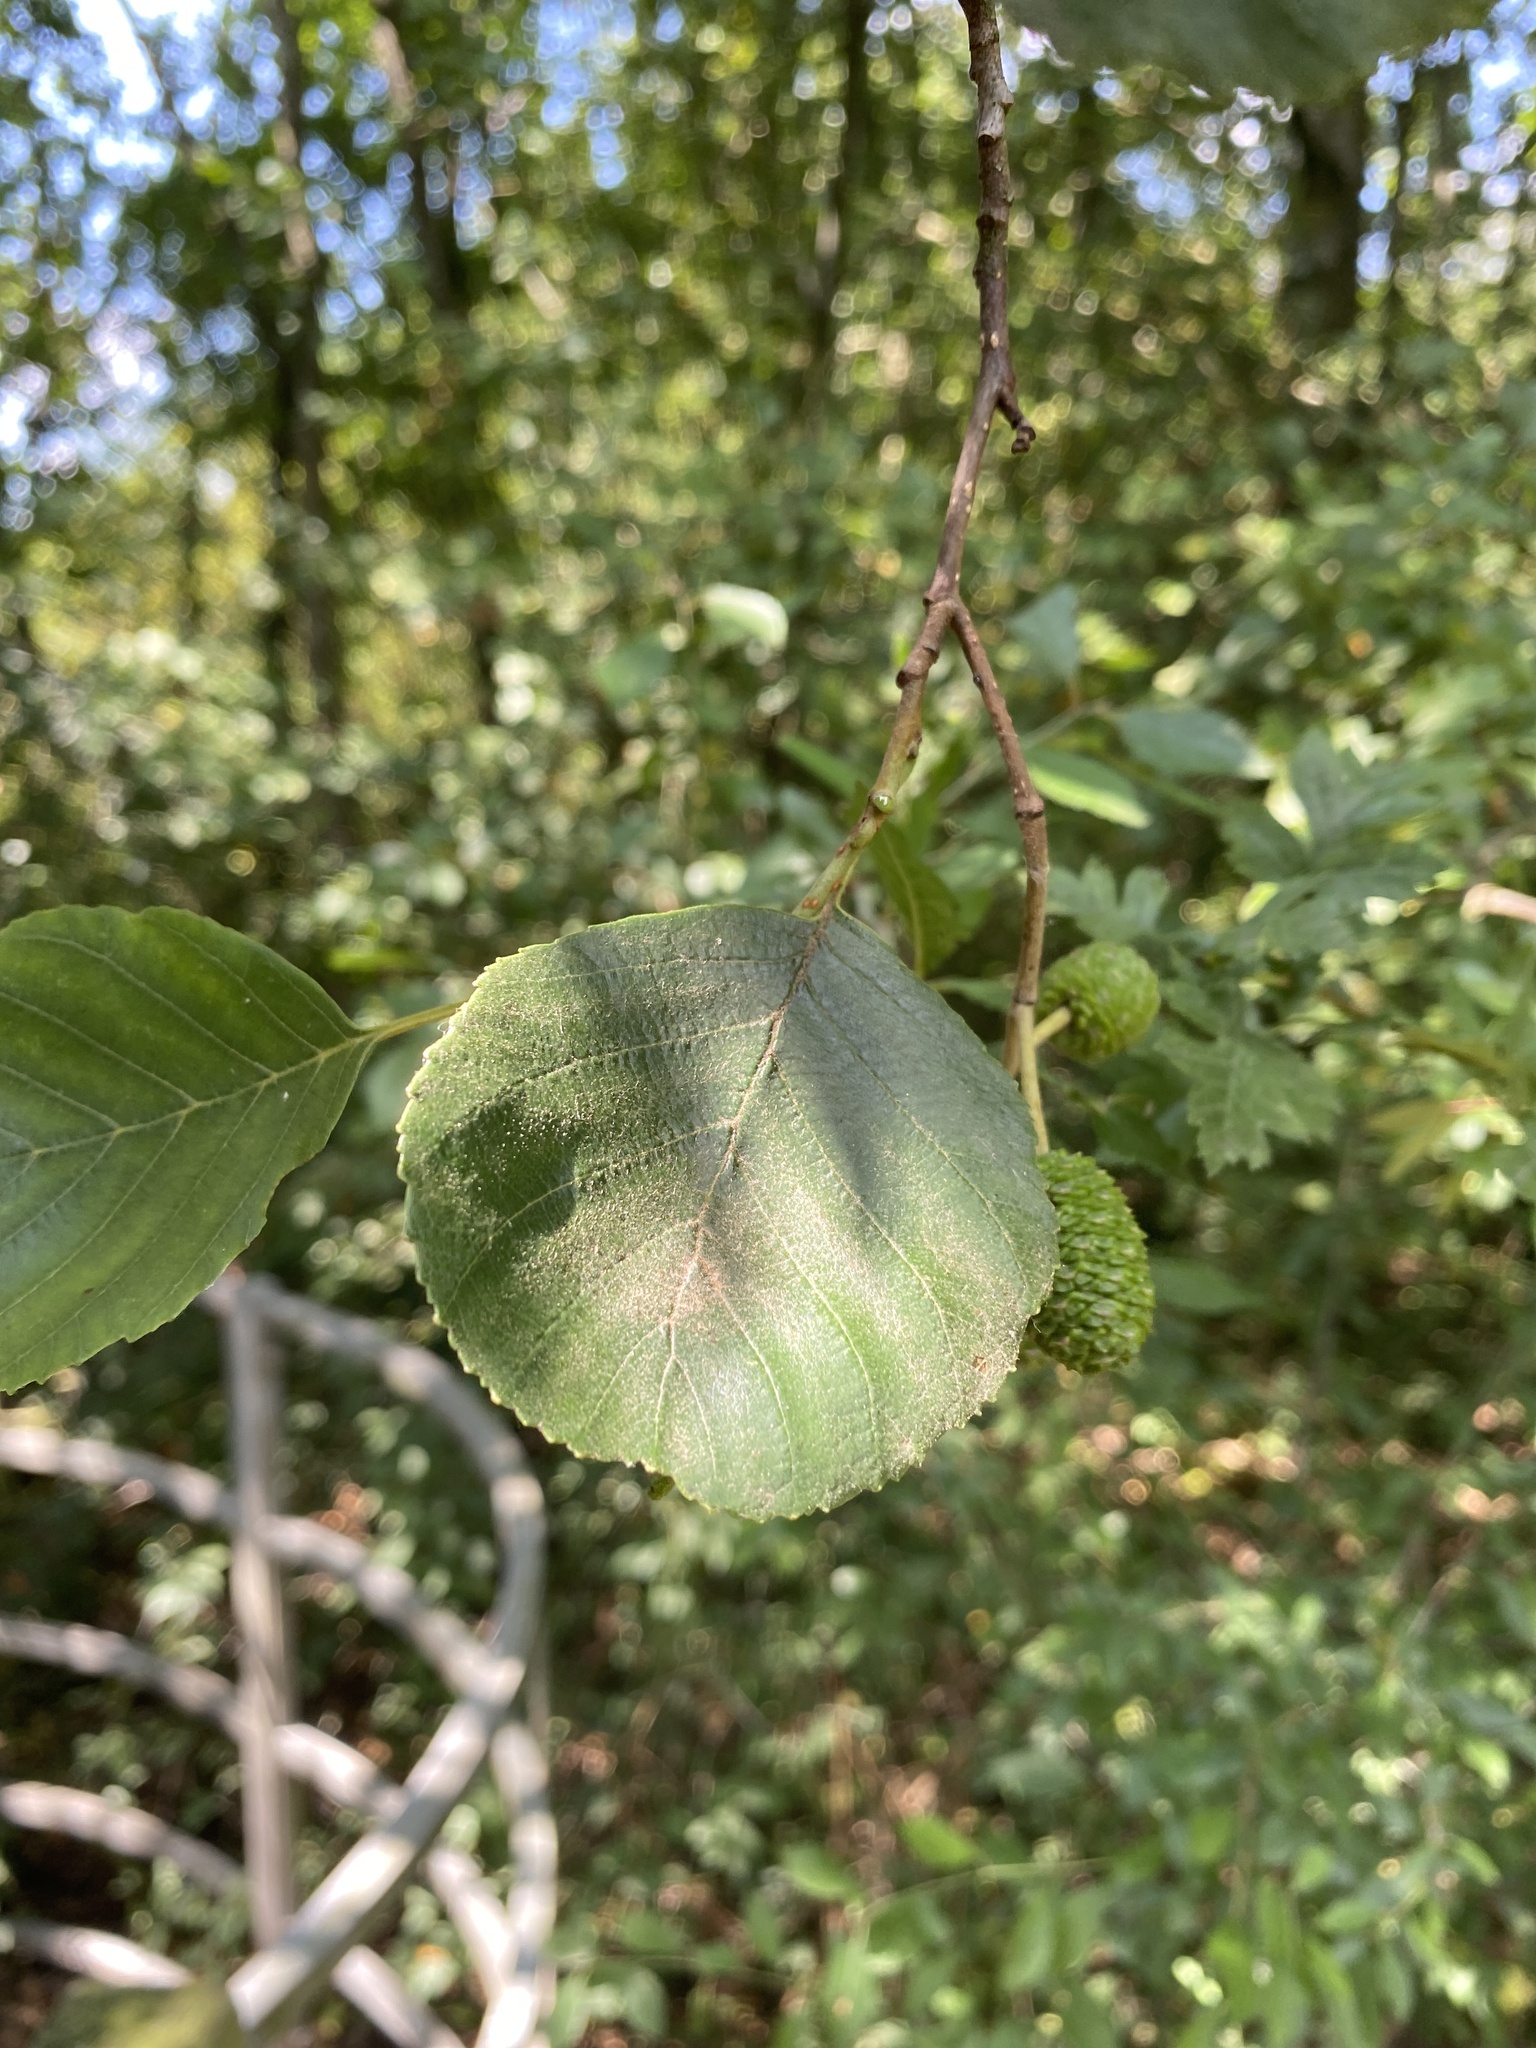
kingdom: Plantae
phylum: Tracheophyta
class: Magnoliopsida
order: Fagales
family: Betulaceae
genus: Alnus
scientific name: Alnus glutinosa
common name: Black alder
